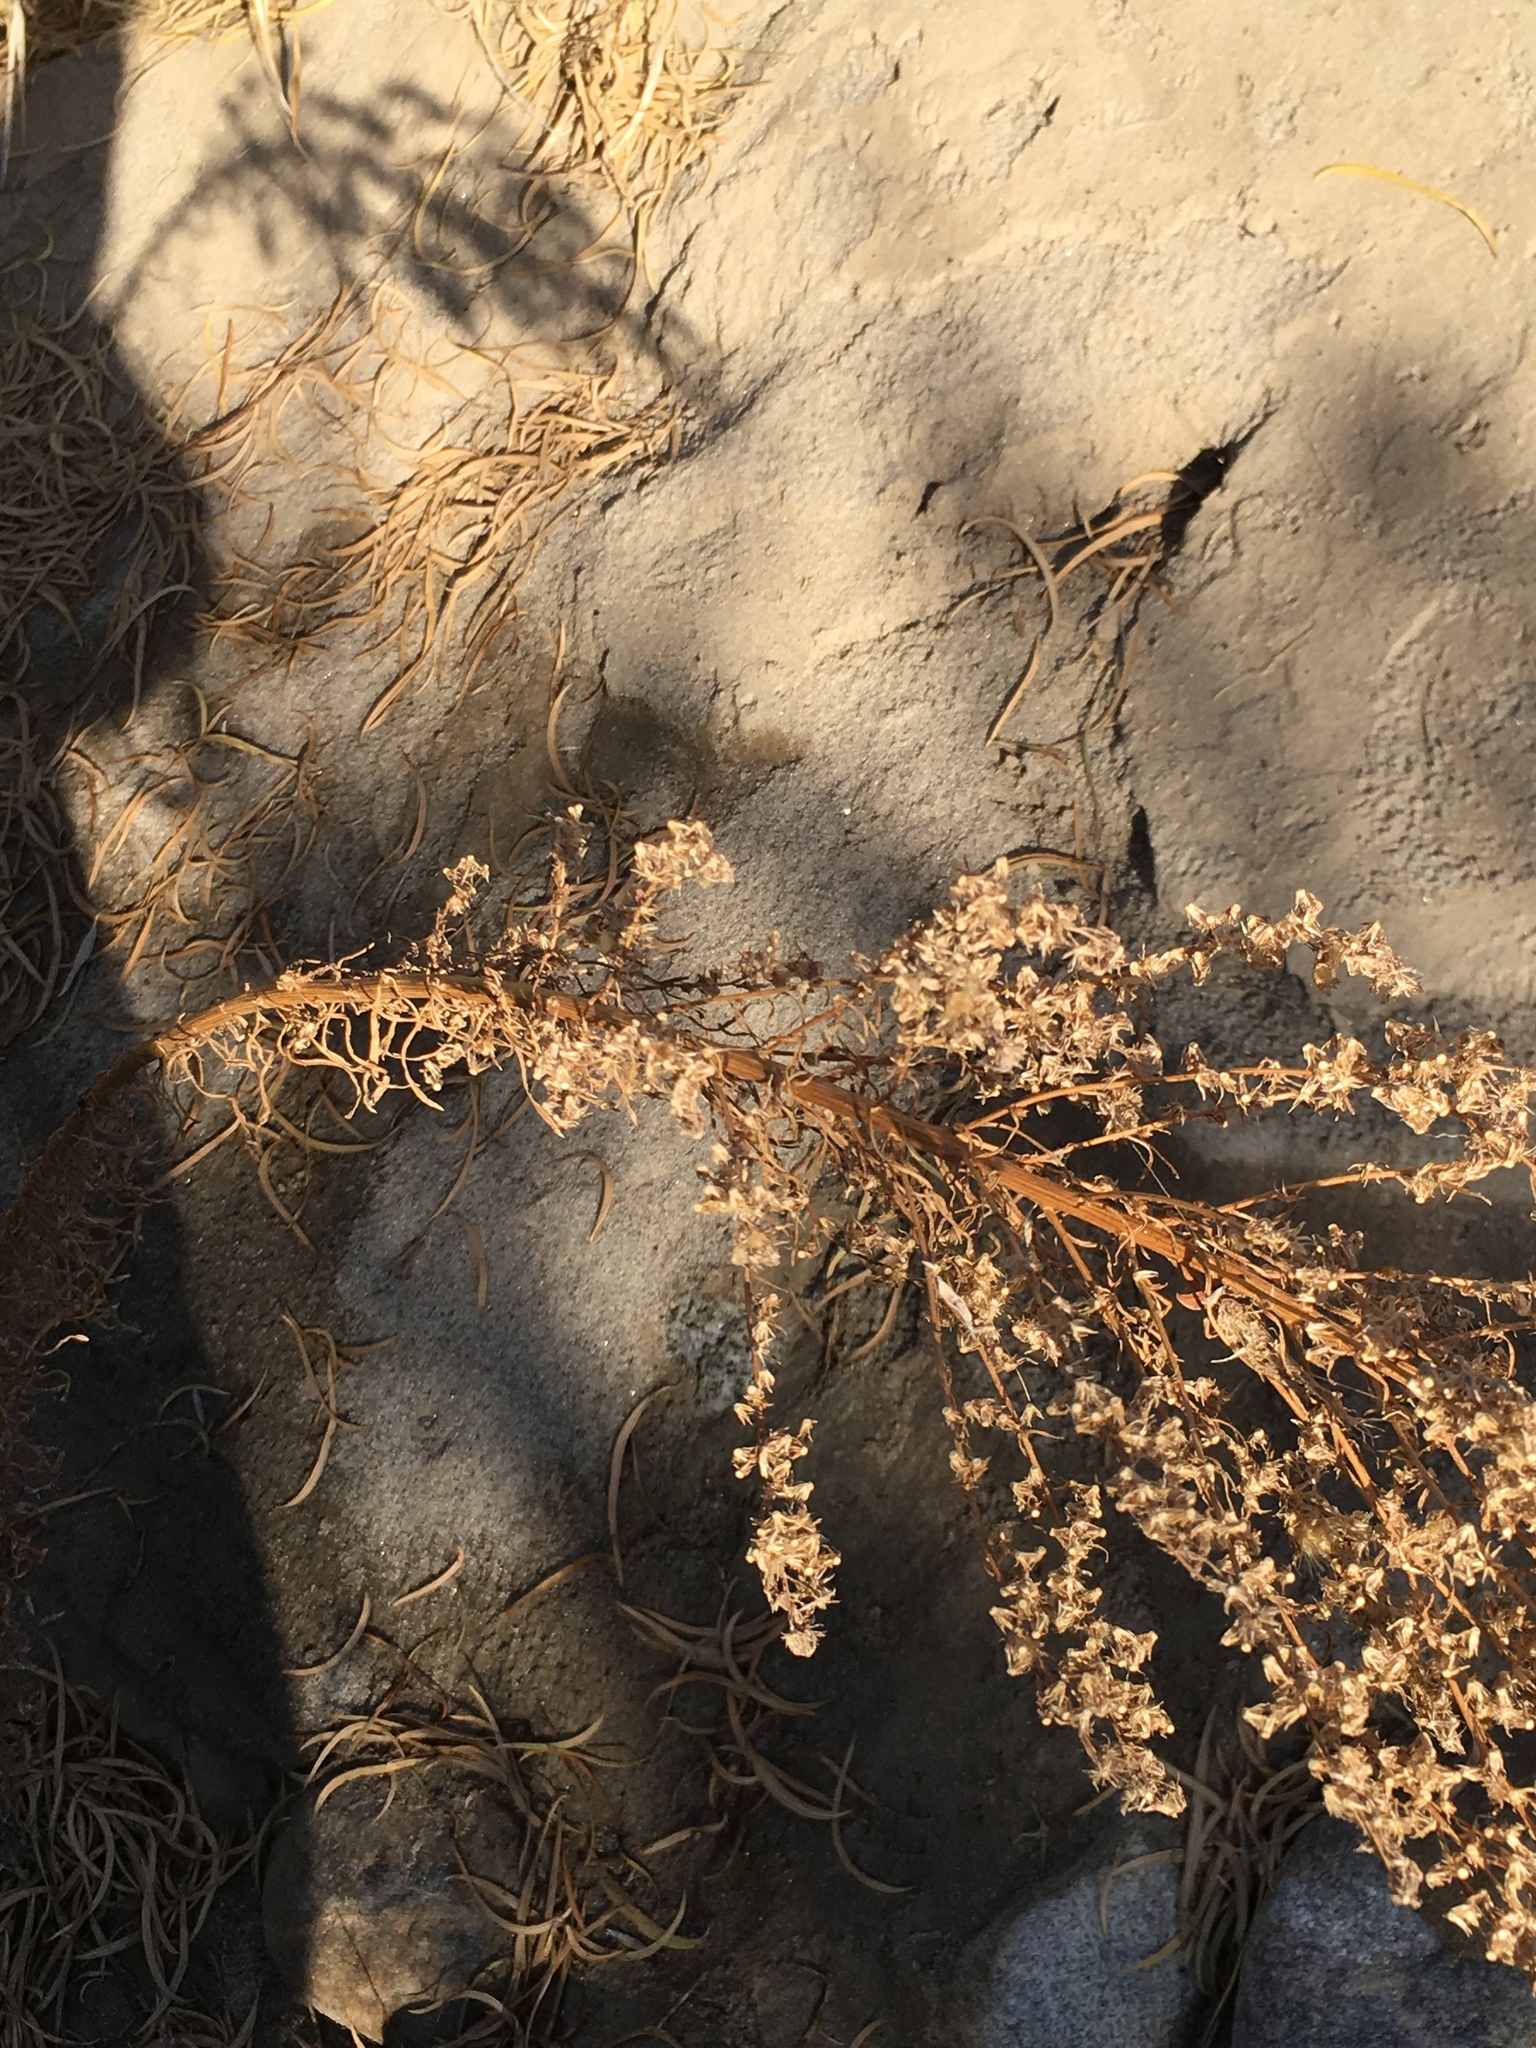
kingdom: Plantae
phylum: Tracheophyta
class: Magnoliopsida
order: Asterales
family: Asteraceae
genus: Erigeron
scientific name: Erigeron canadensis
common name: Canadian fleabane
